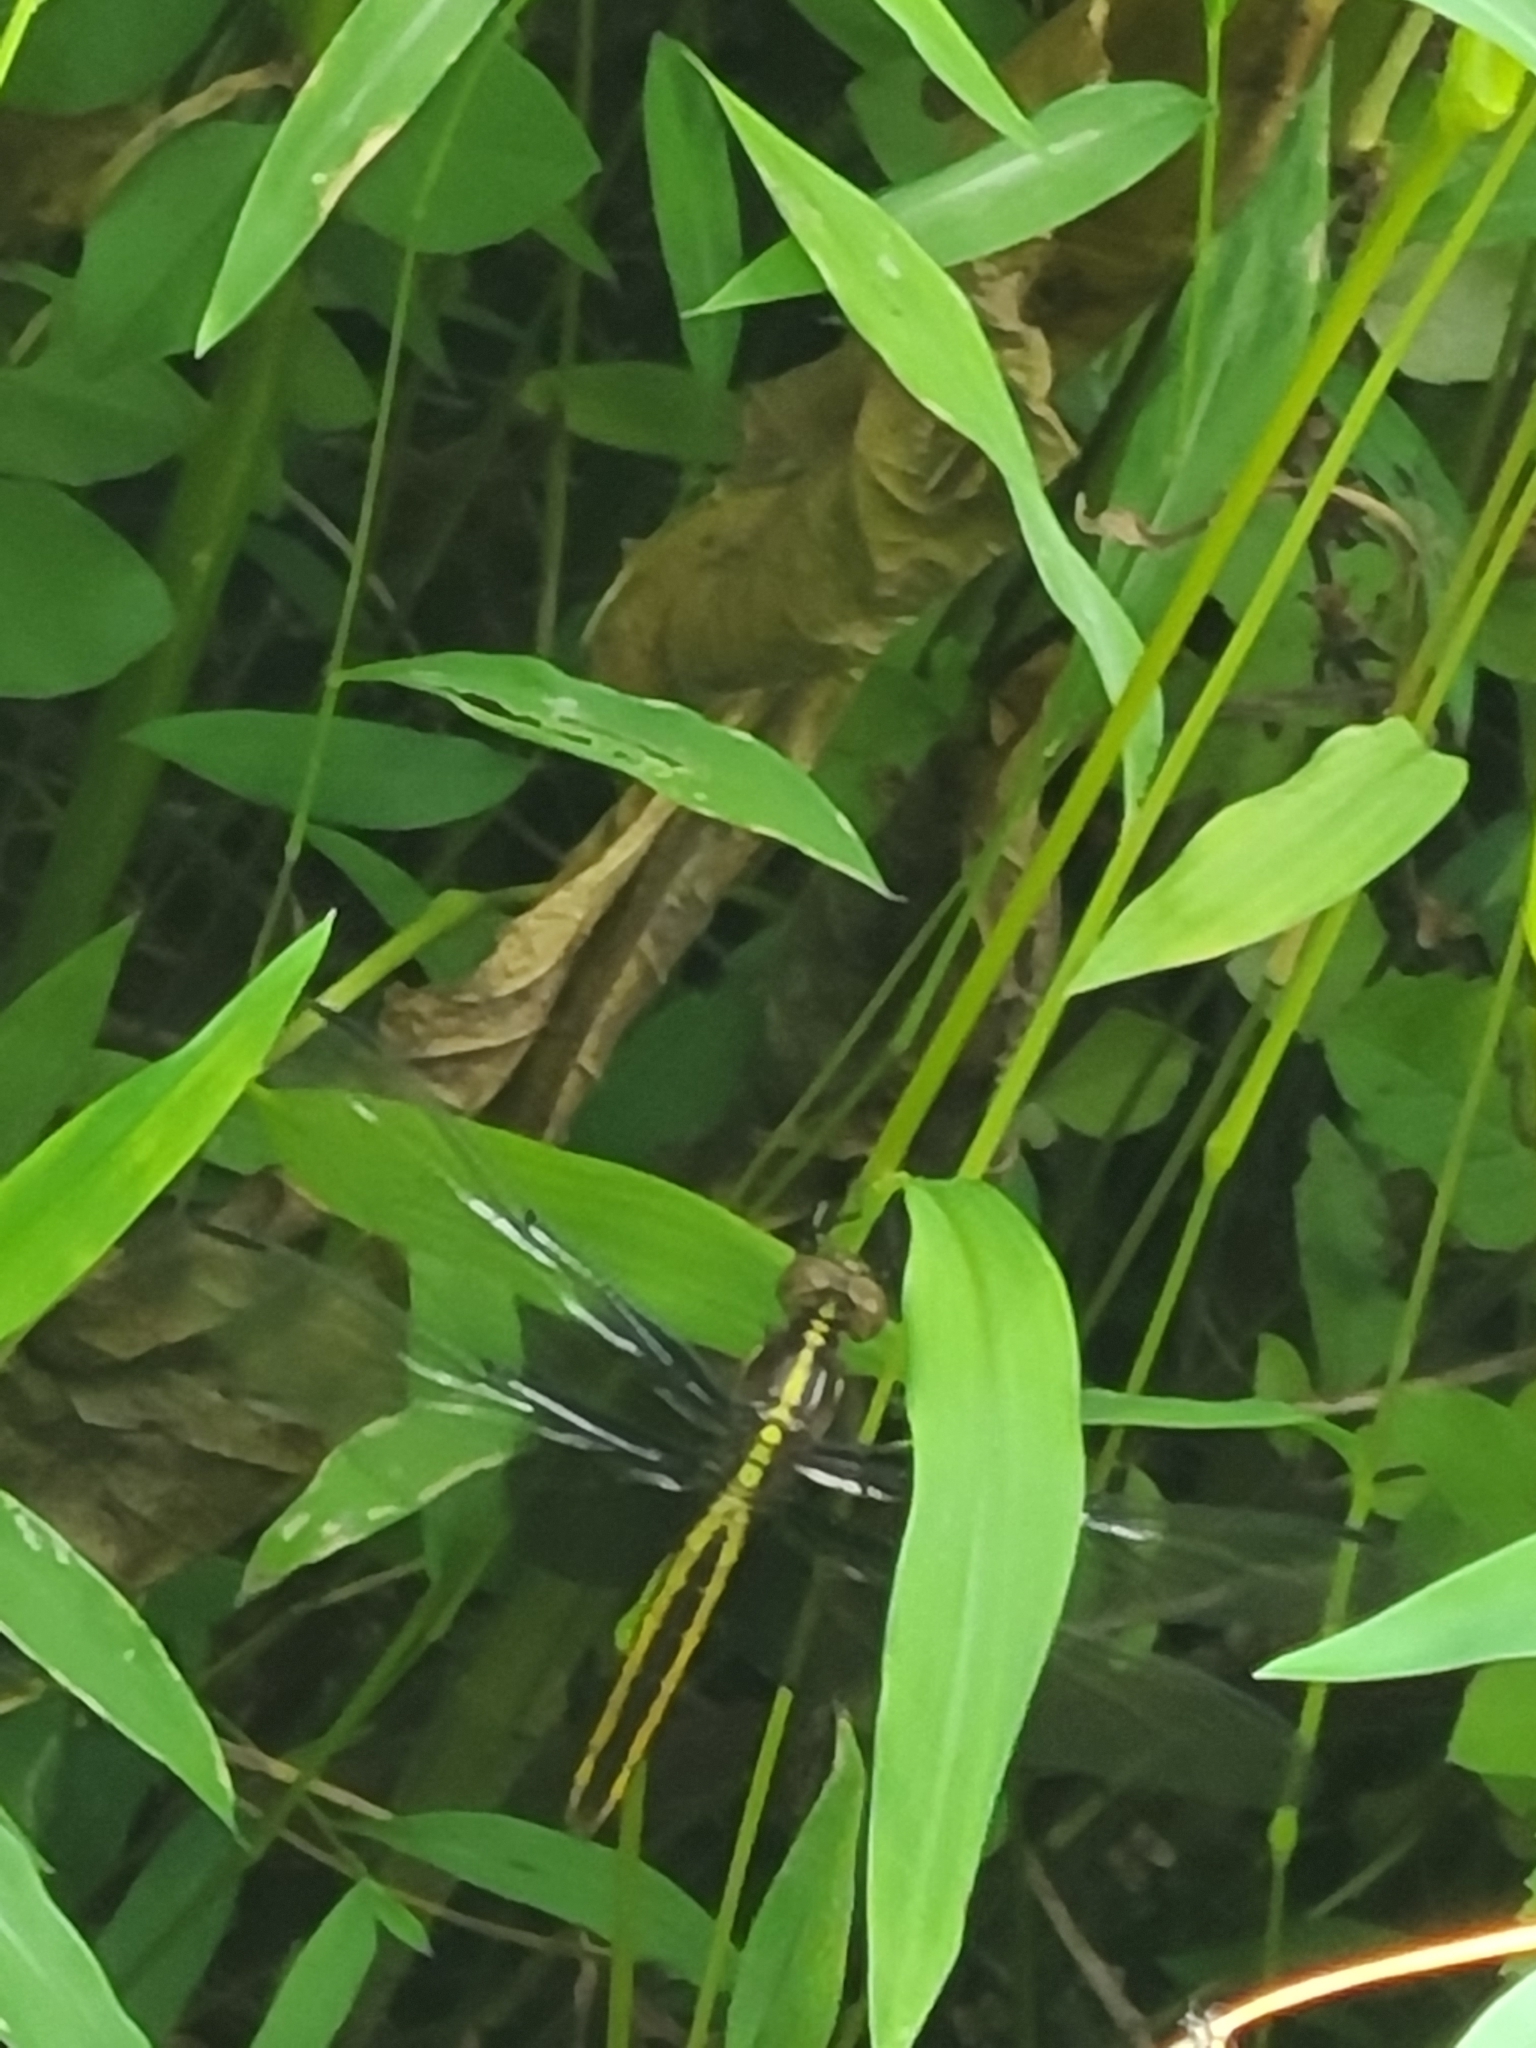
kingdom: Animalia
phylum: Arthropoda
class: Insecta
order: Odonata
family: Libellulidae
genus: Libellula
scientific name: Libellula luctuosa
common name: Widow skimmer
